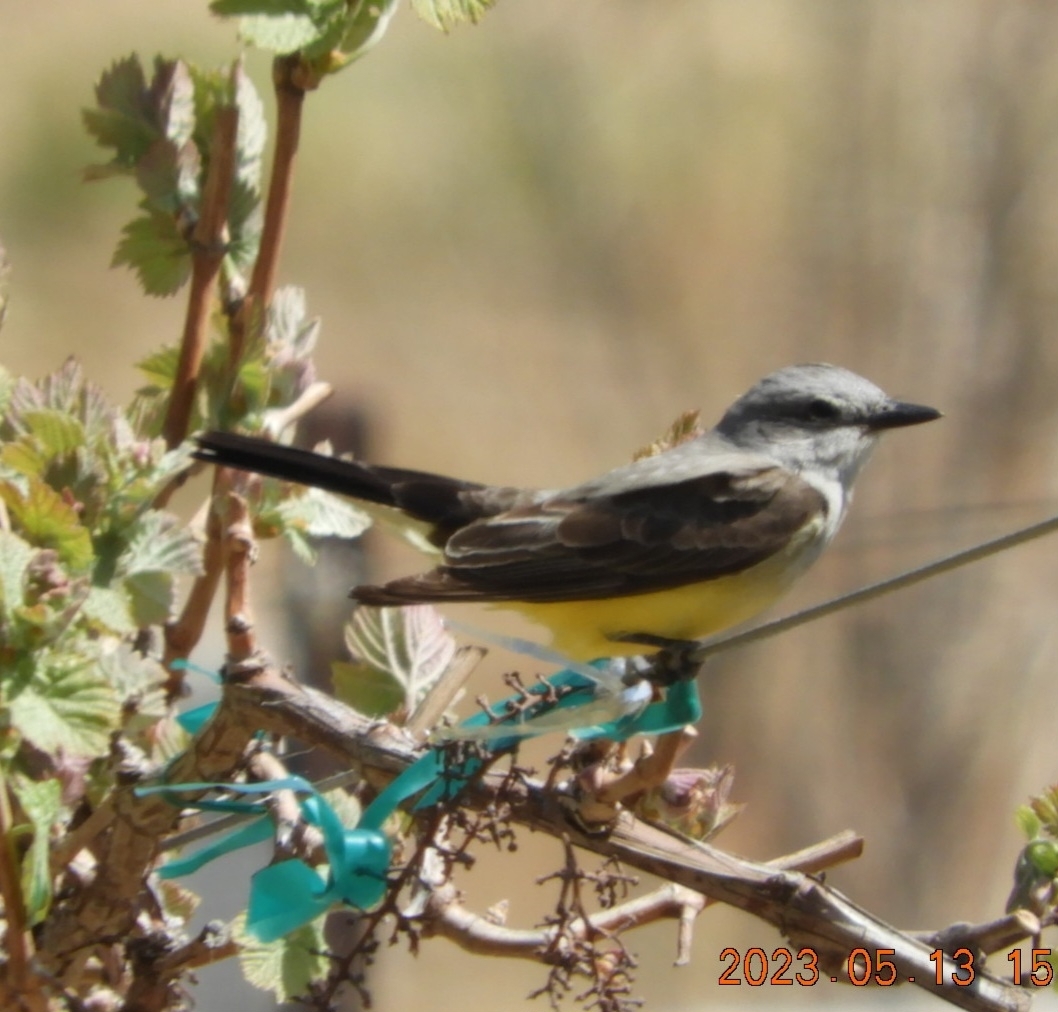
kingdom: Animalia
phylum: Chordata
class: Aves
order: Passeriformes
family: Tyrannidae
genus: Tyrannus
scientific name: Tyrannus verticalis
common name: Western kingbird
